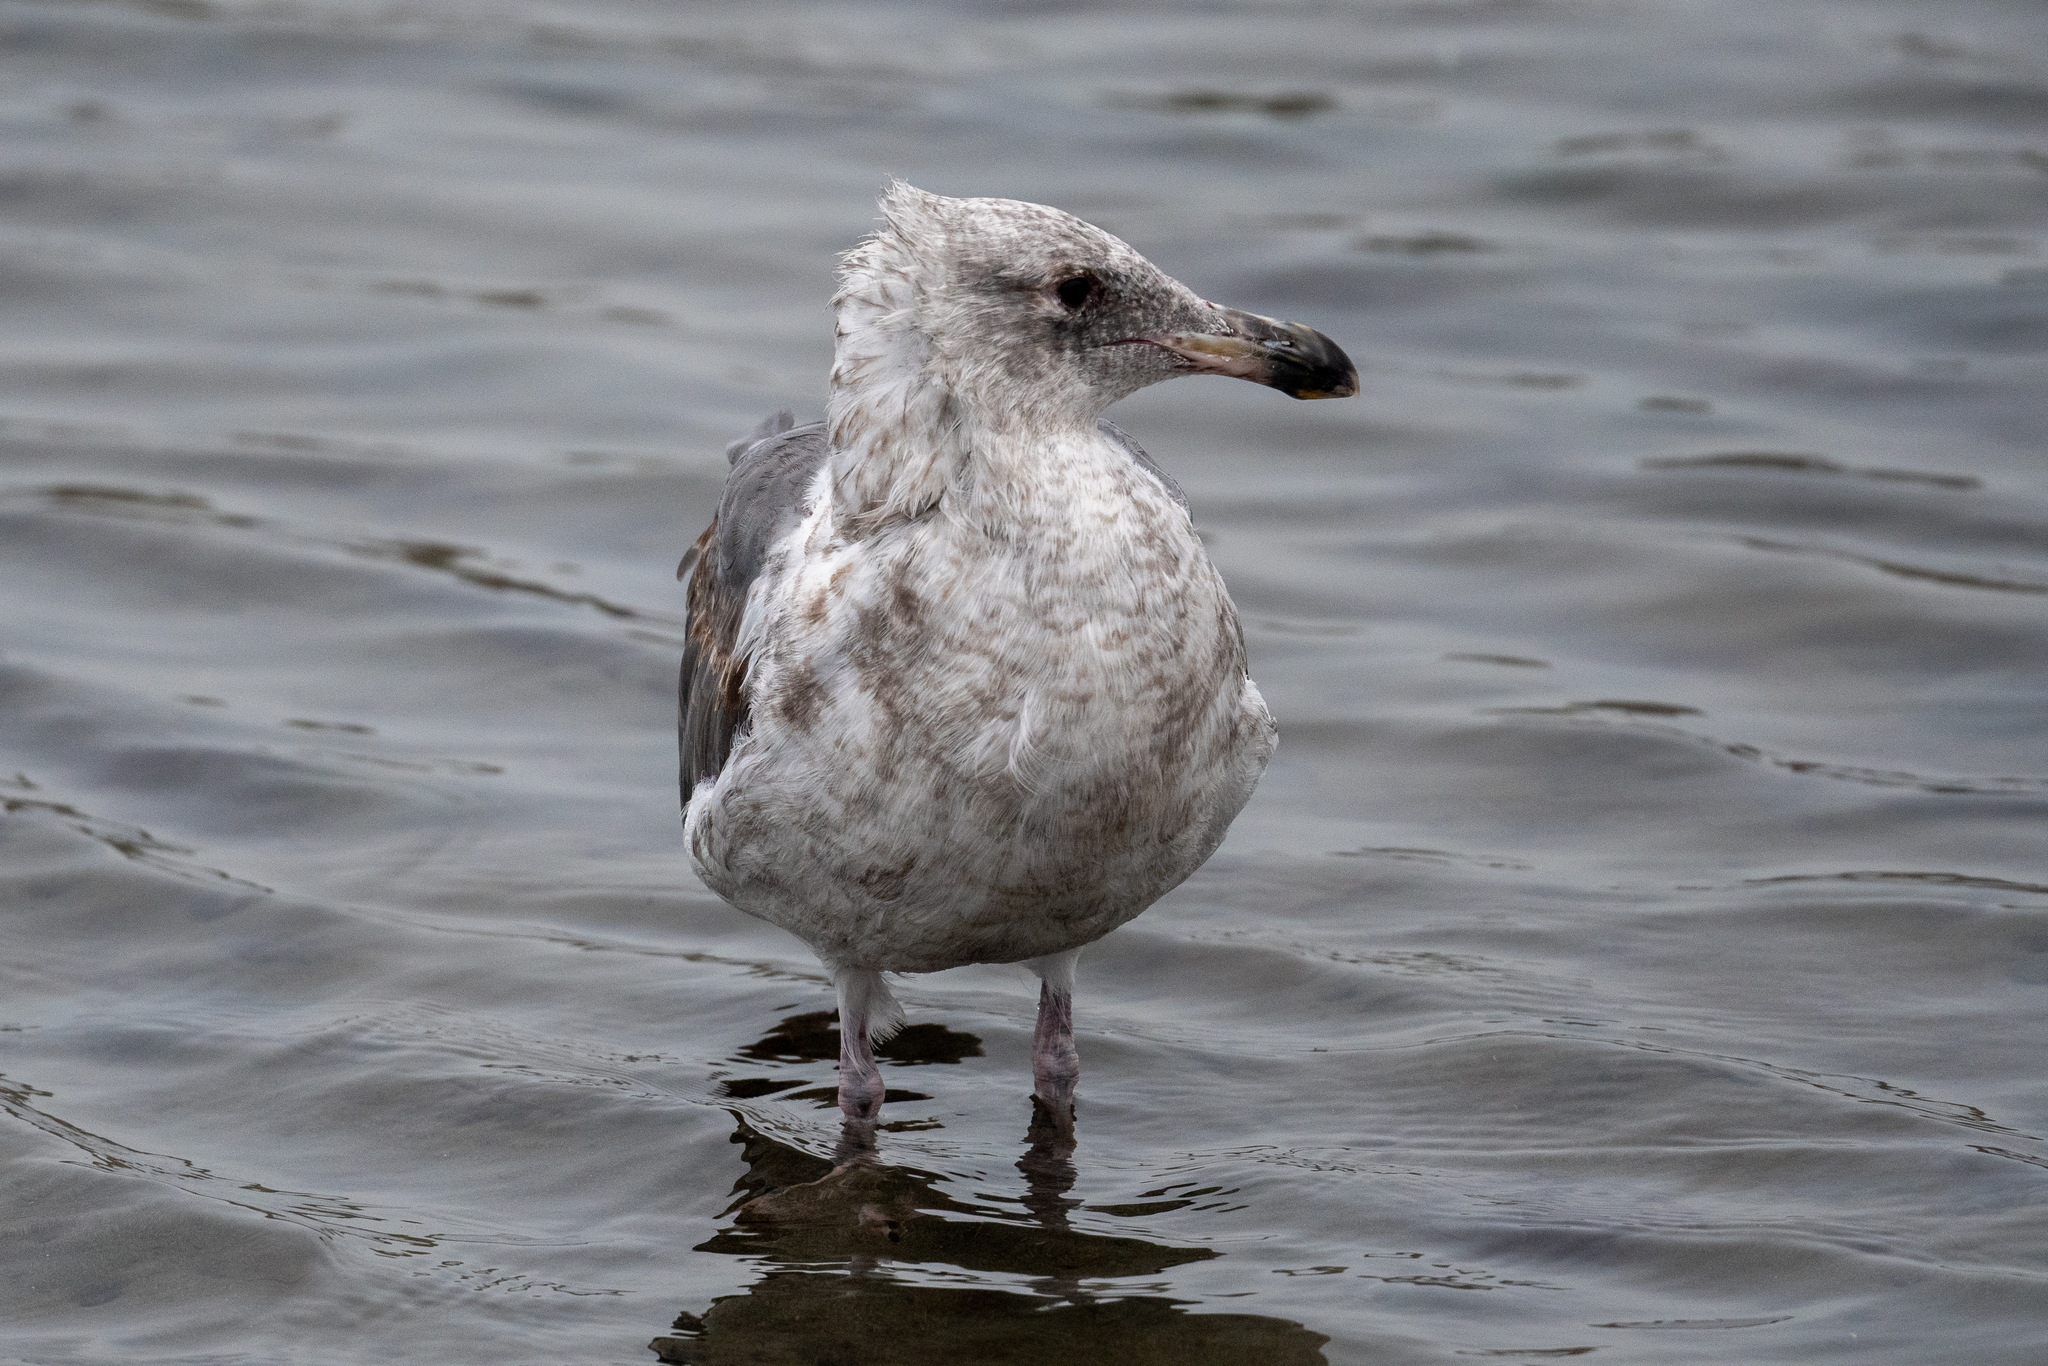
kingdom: Animalia
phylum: Chordata
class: Aves
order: Charadriiformes
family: Laridae
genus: Larus
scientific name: Larus occidentalis
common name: Western gull
